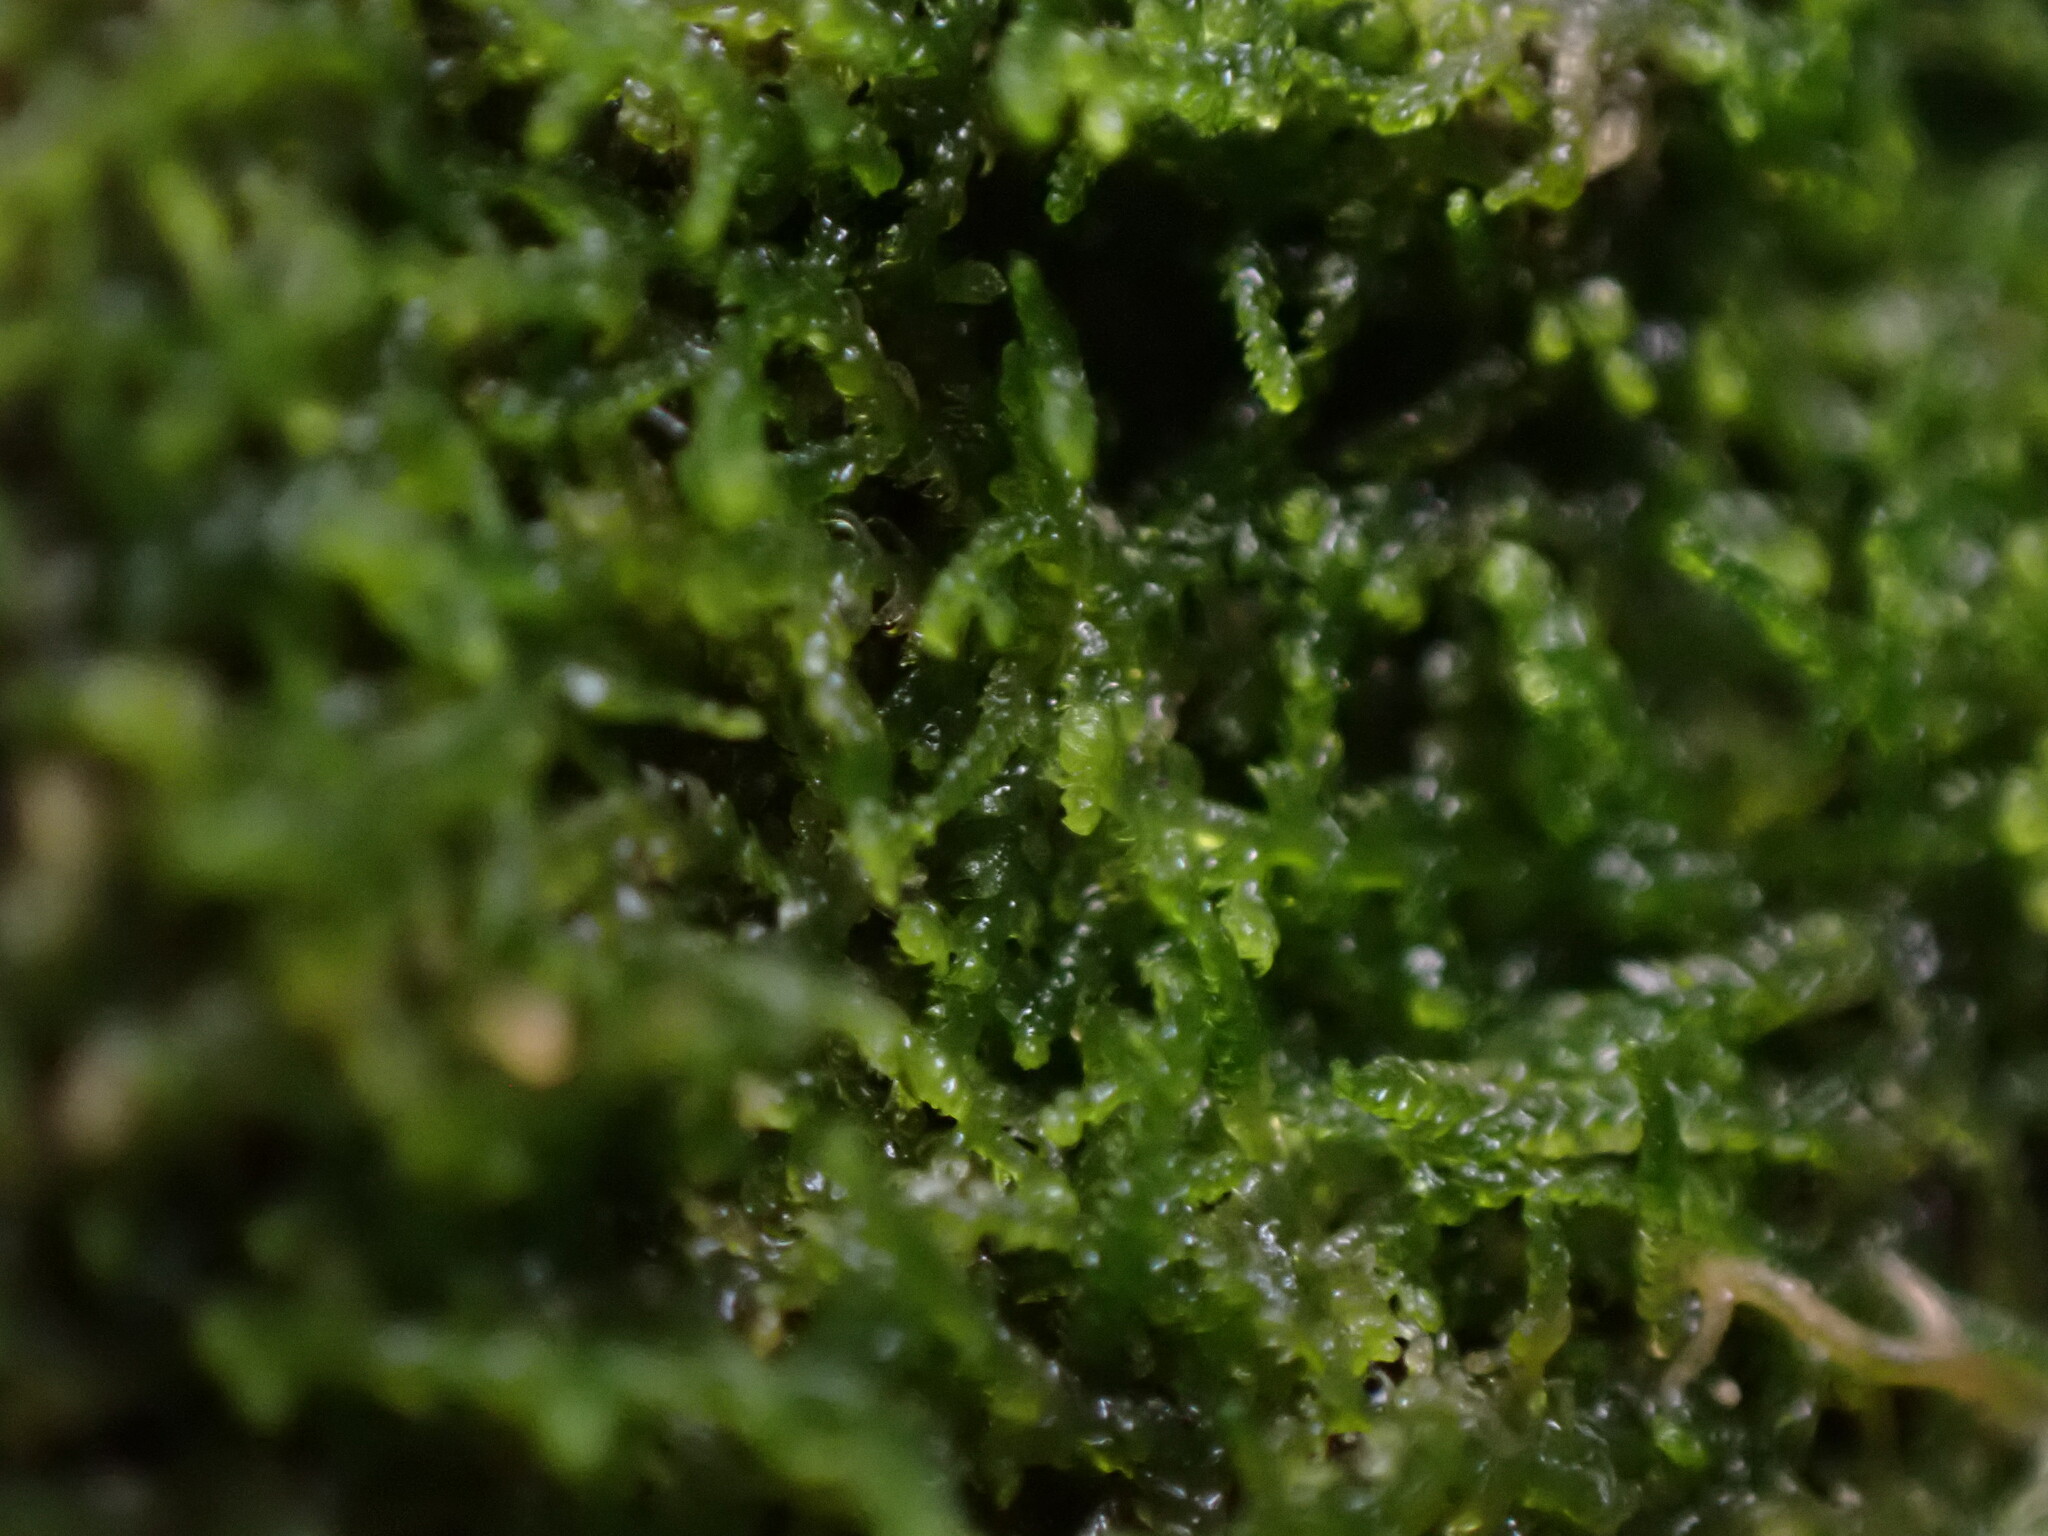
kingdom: Plantae
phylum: Marchantiophyta
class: Jungermanniopsida
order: Jungermanniales
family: Lepidoziaceae
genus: Lepidozia
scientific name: Lepidozia reptans
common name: Creeping fingerwort
